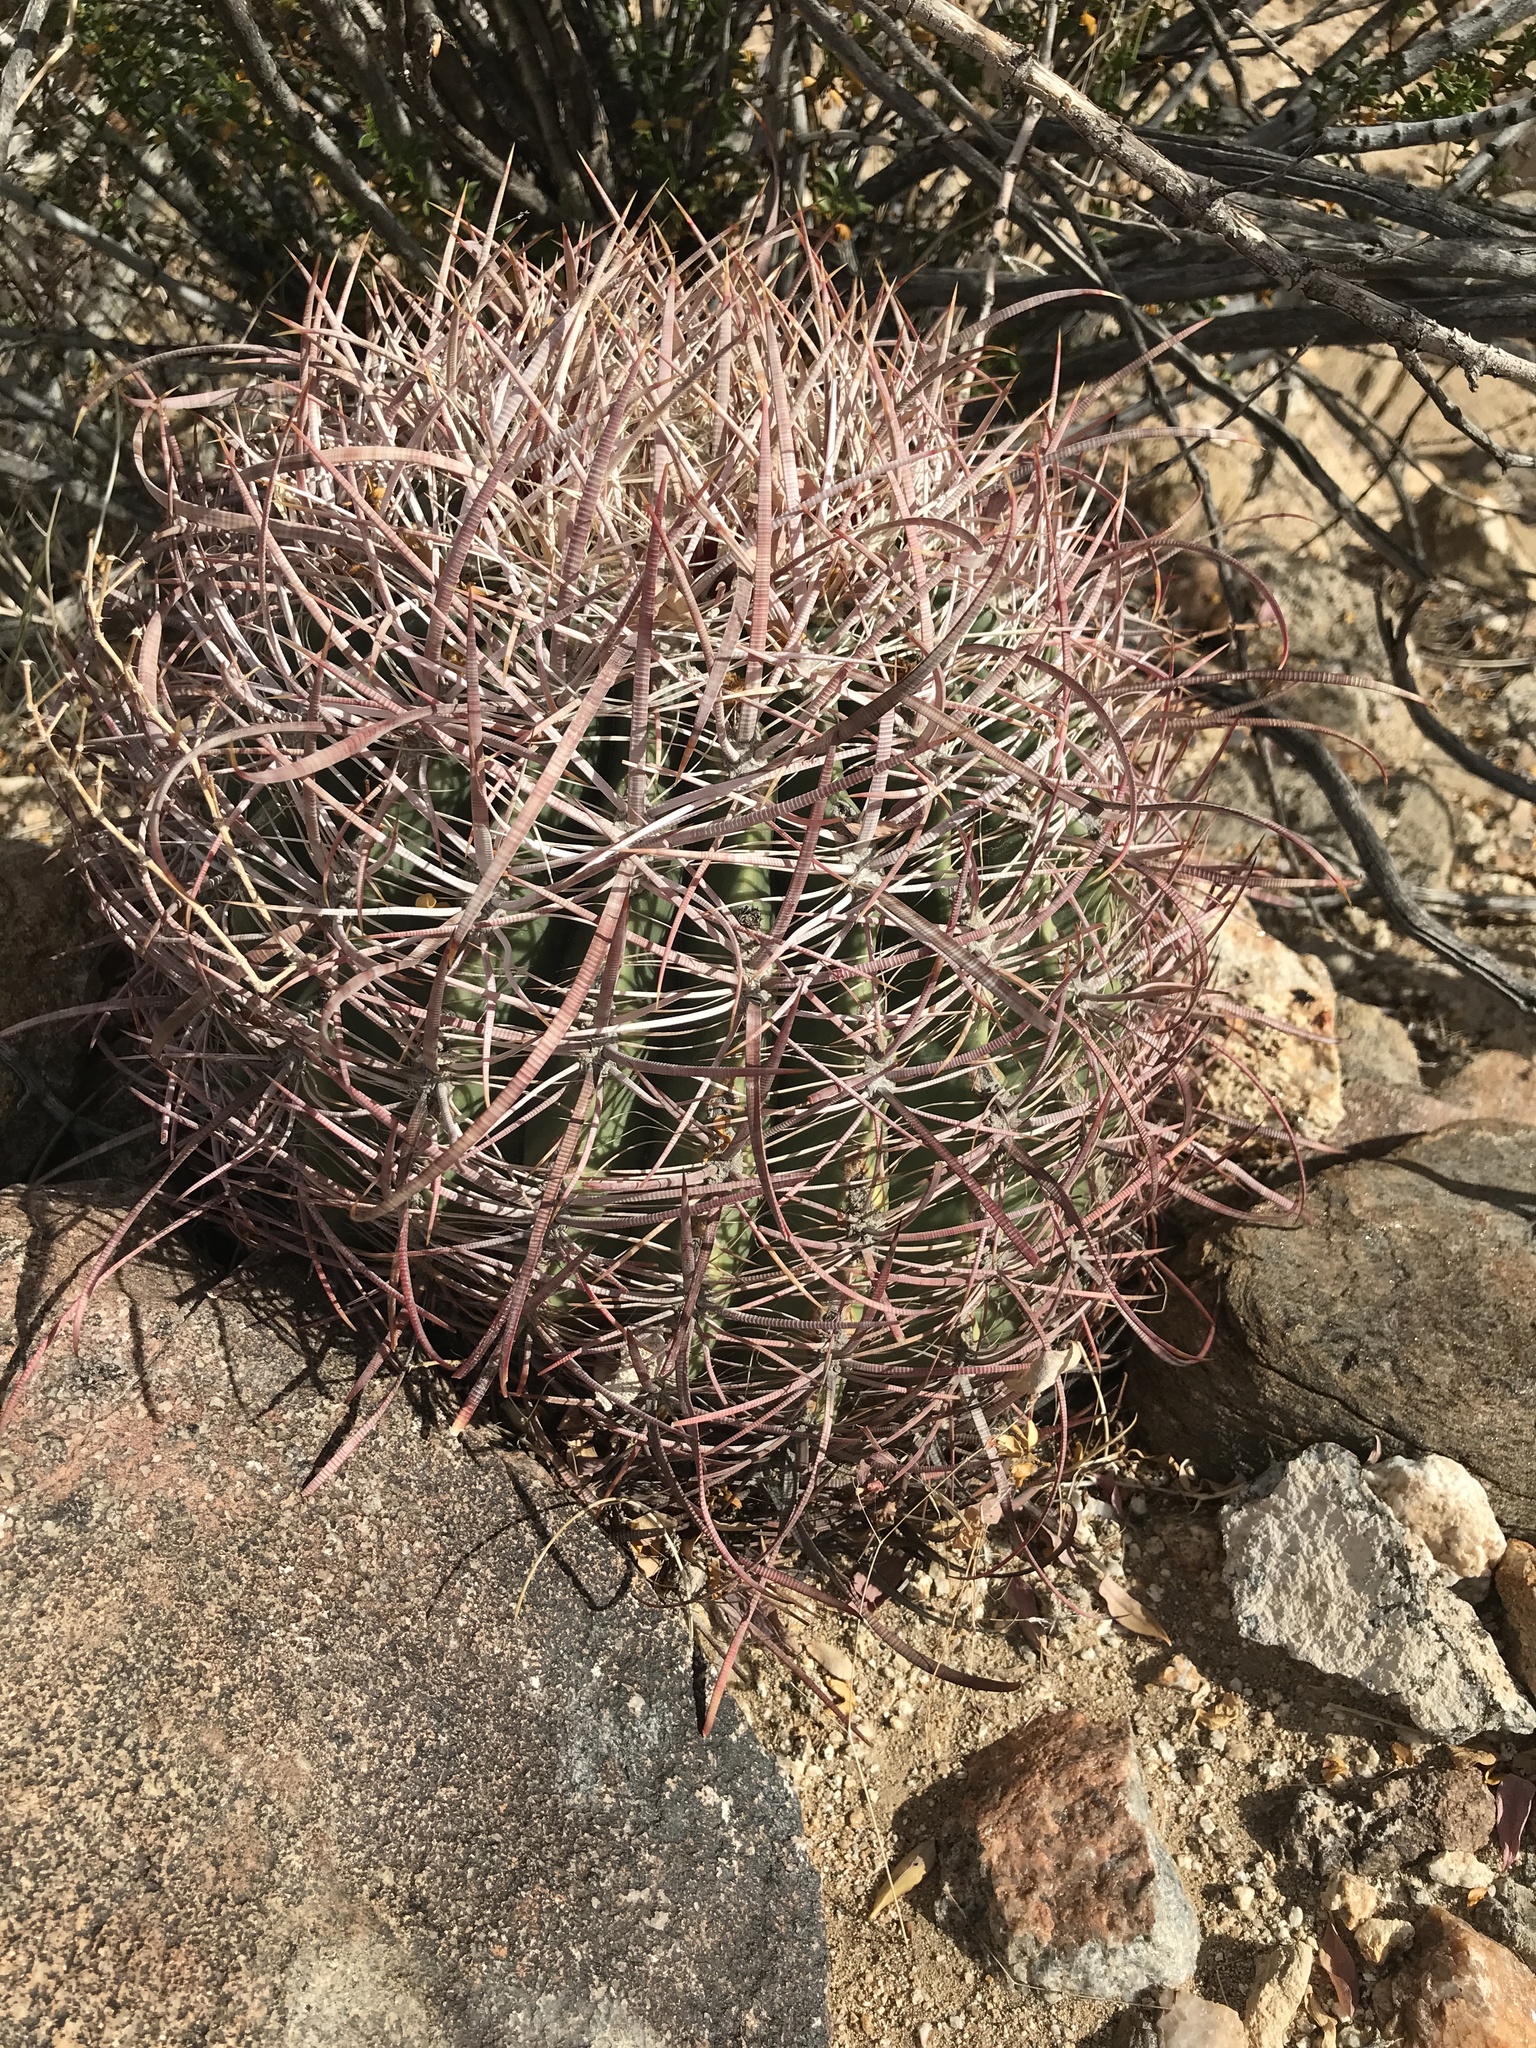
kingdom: Plantae
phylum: Tracheophyta
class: Magnoliopsida
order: Caryophyllales
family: Cactaceae
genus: Ferocactus
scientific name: Ferocactus cylindraceus
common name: California barrel cactus
